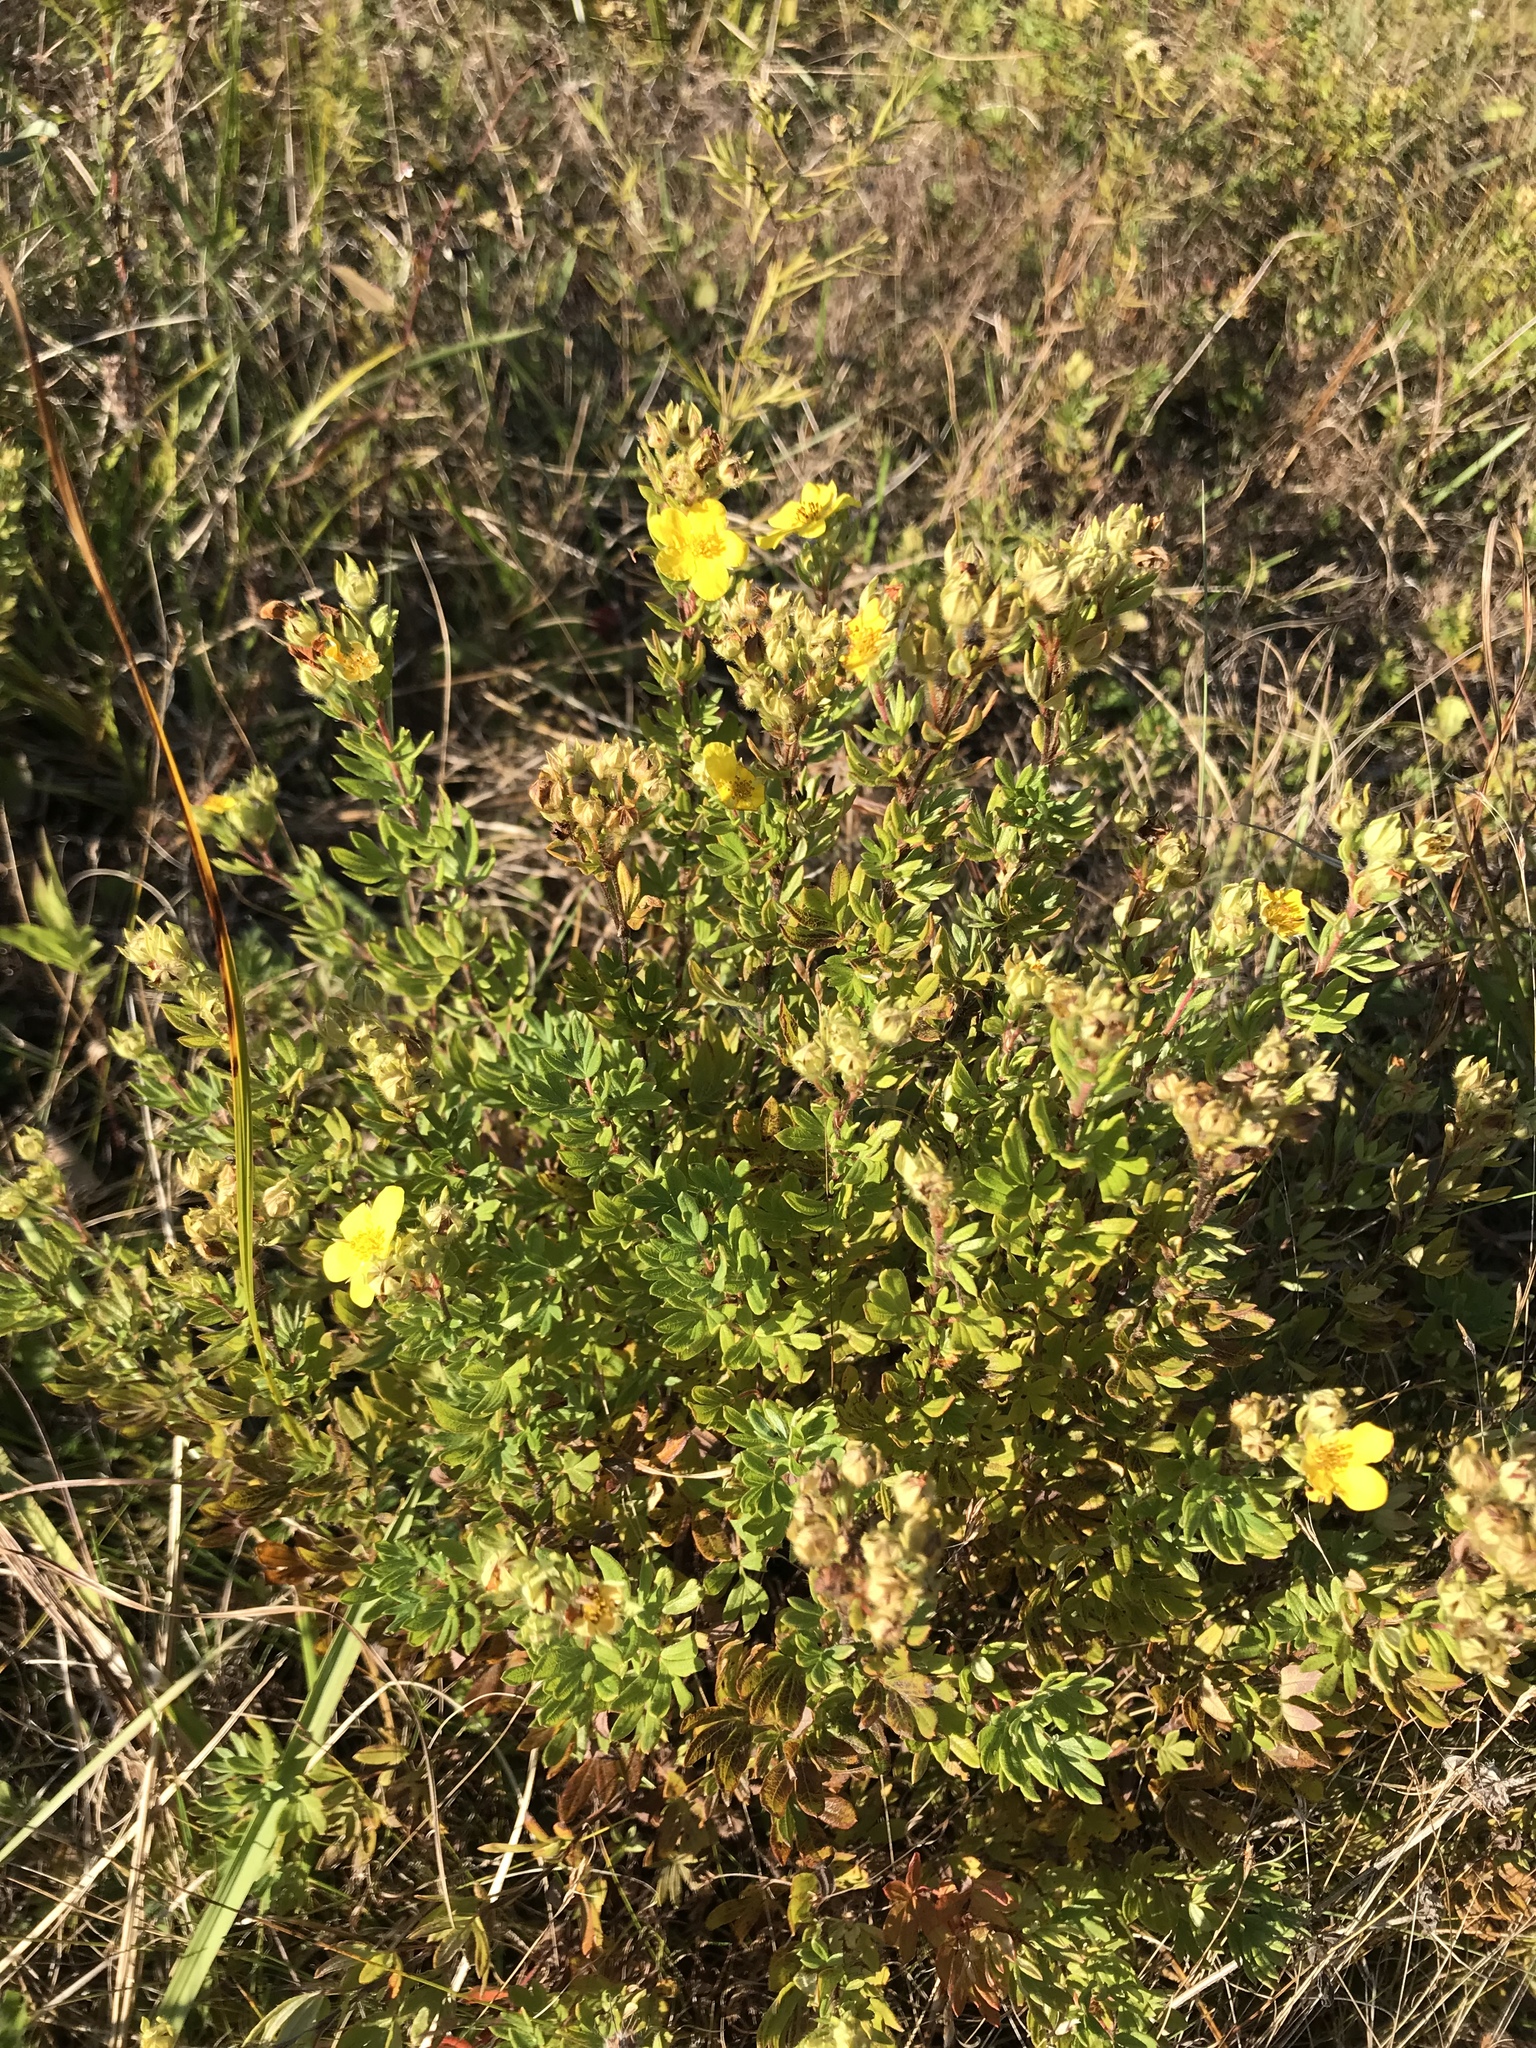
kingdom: Plantae
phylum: Tracheophyta
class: Magnoliopsida
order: Rosales
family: Rosaceae
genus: Dasiphora
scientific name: Dasiphora fruticosa
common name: Shrubby cinquefoil
